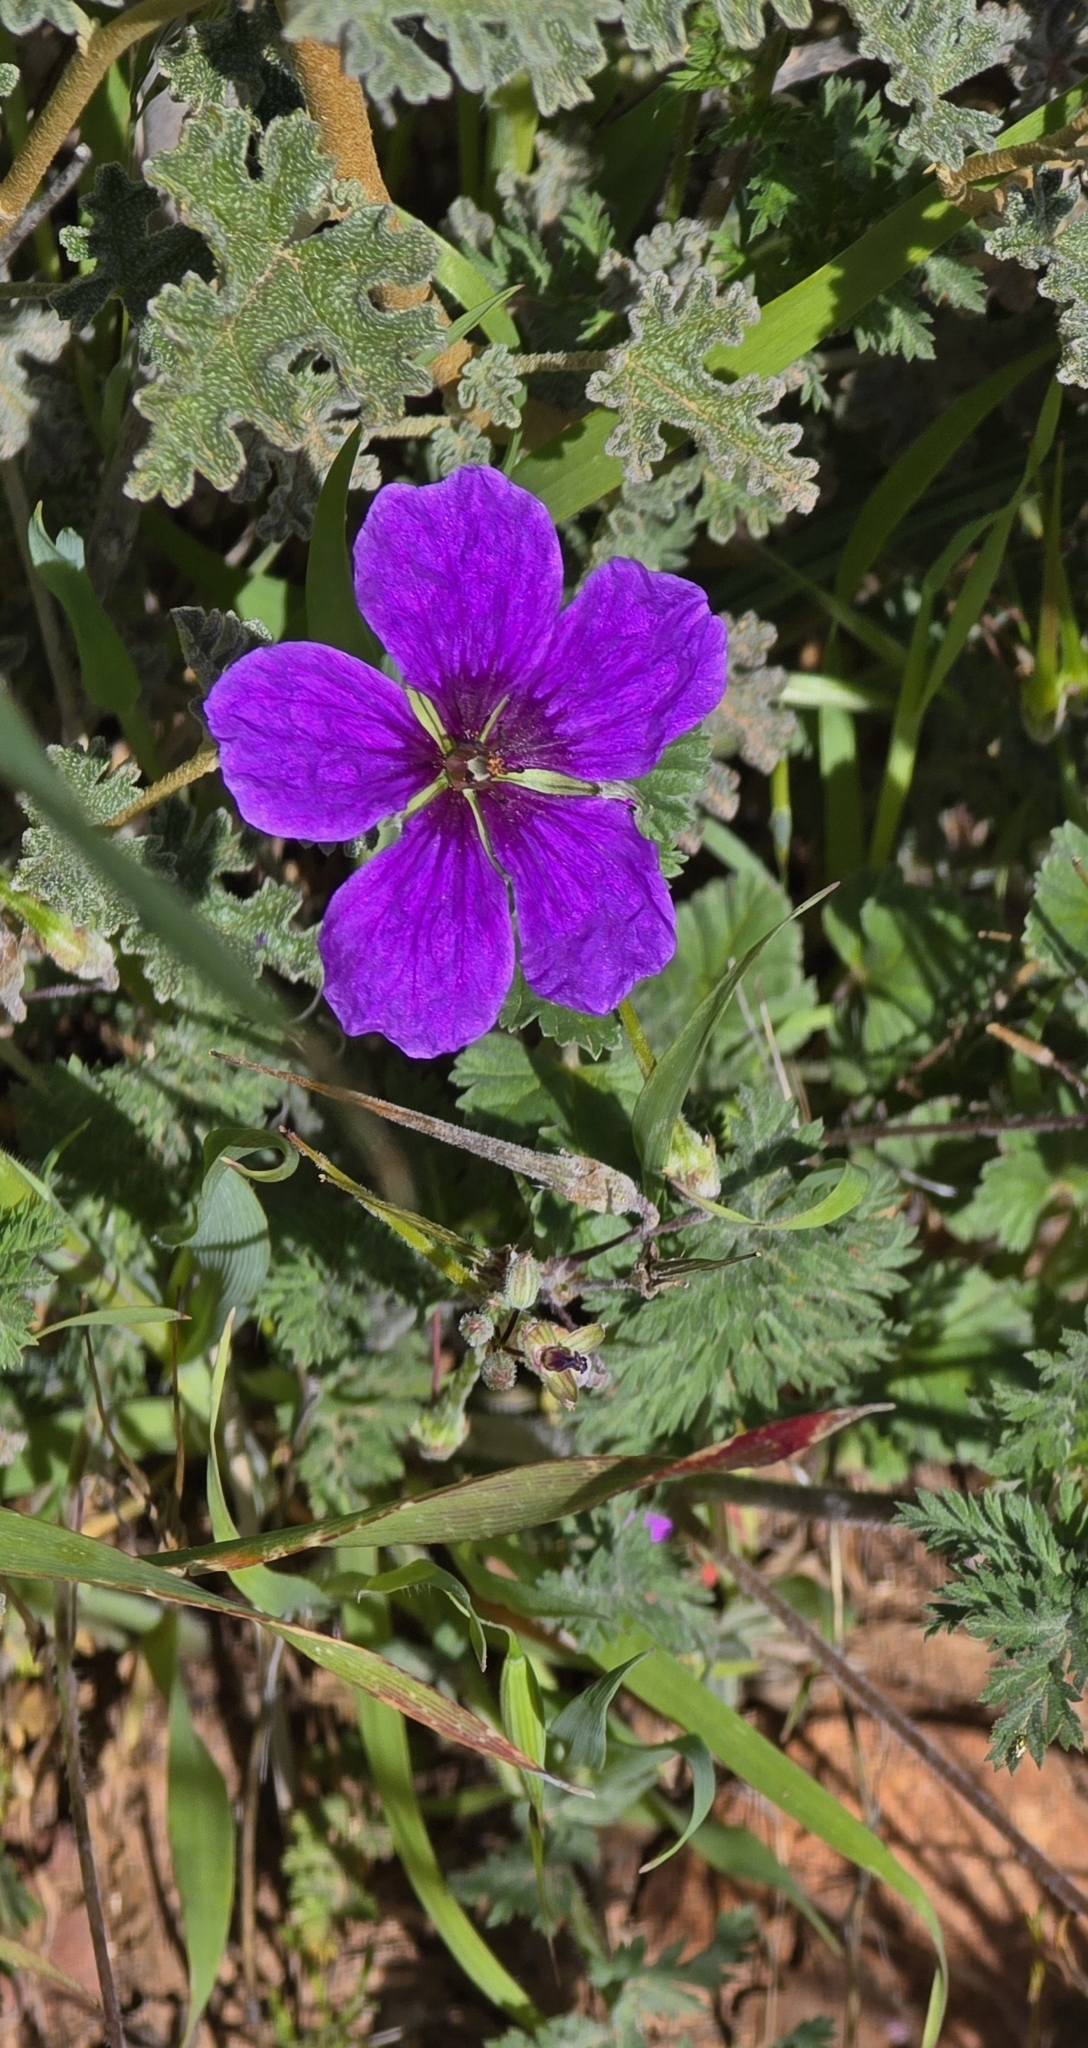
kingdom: Plantae
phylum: Tracheophyta
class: Magnoliopsida
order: Geraniales
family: Geraniaceae
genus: Erodium
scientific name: Erodium texanum
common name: Texas stork's-bill
